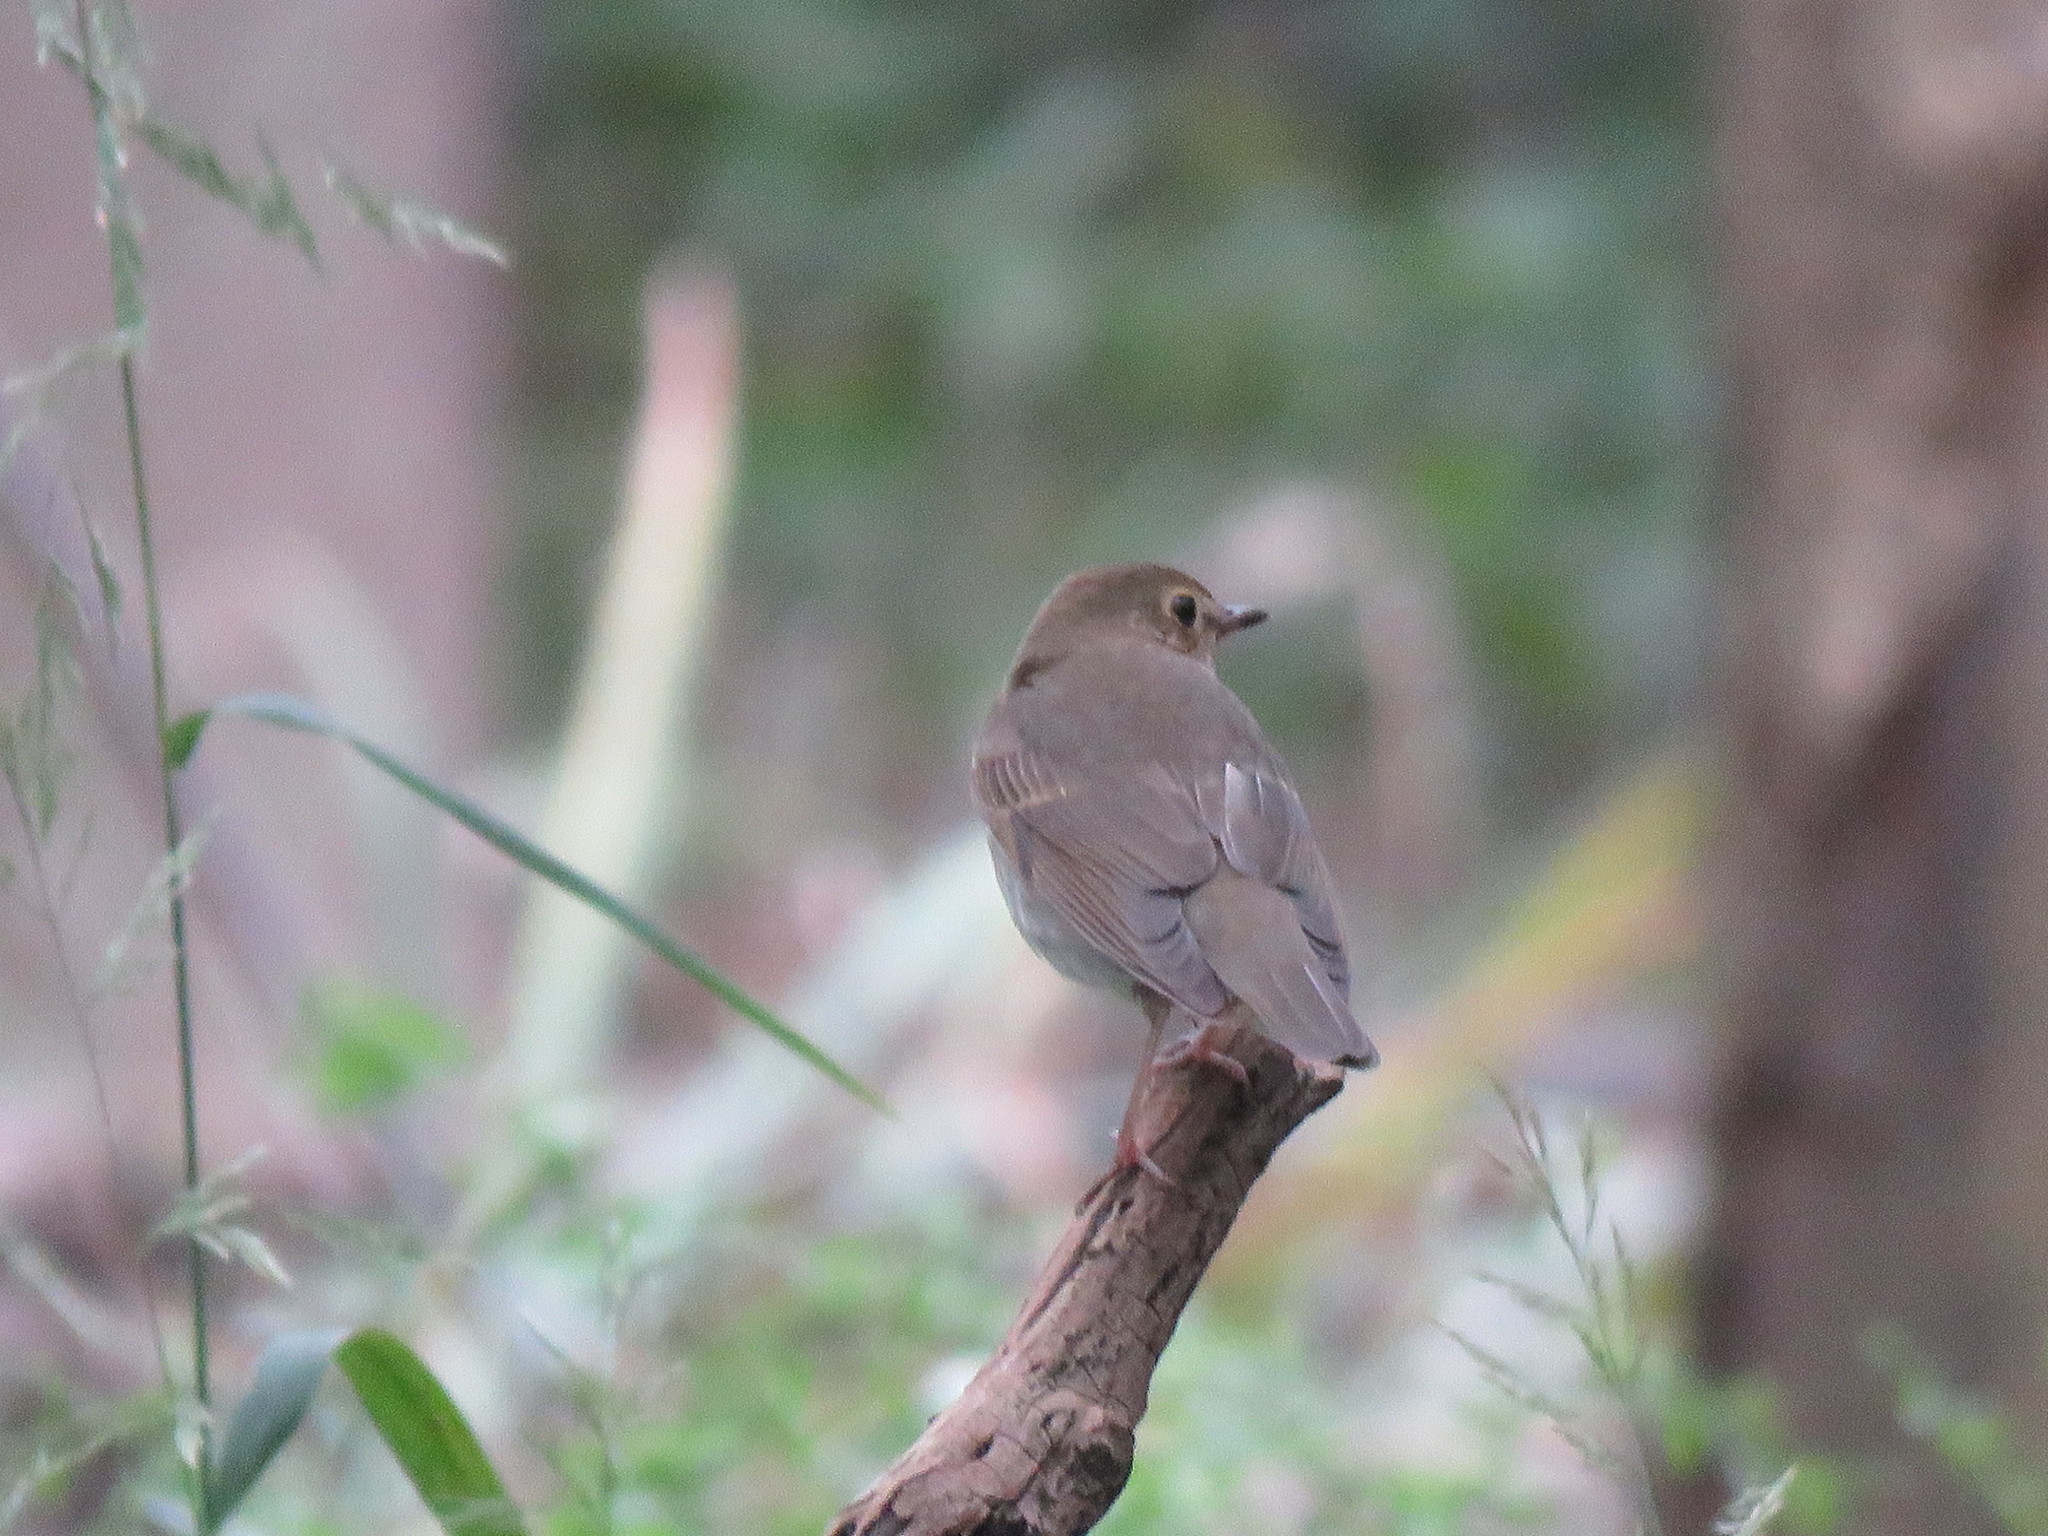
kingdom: Animalia
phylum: Chordata
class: Aves
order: Passeriformes
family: Turdidae
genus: Catharus
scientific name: Catharus ustulatus
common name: Swainson's thrush
